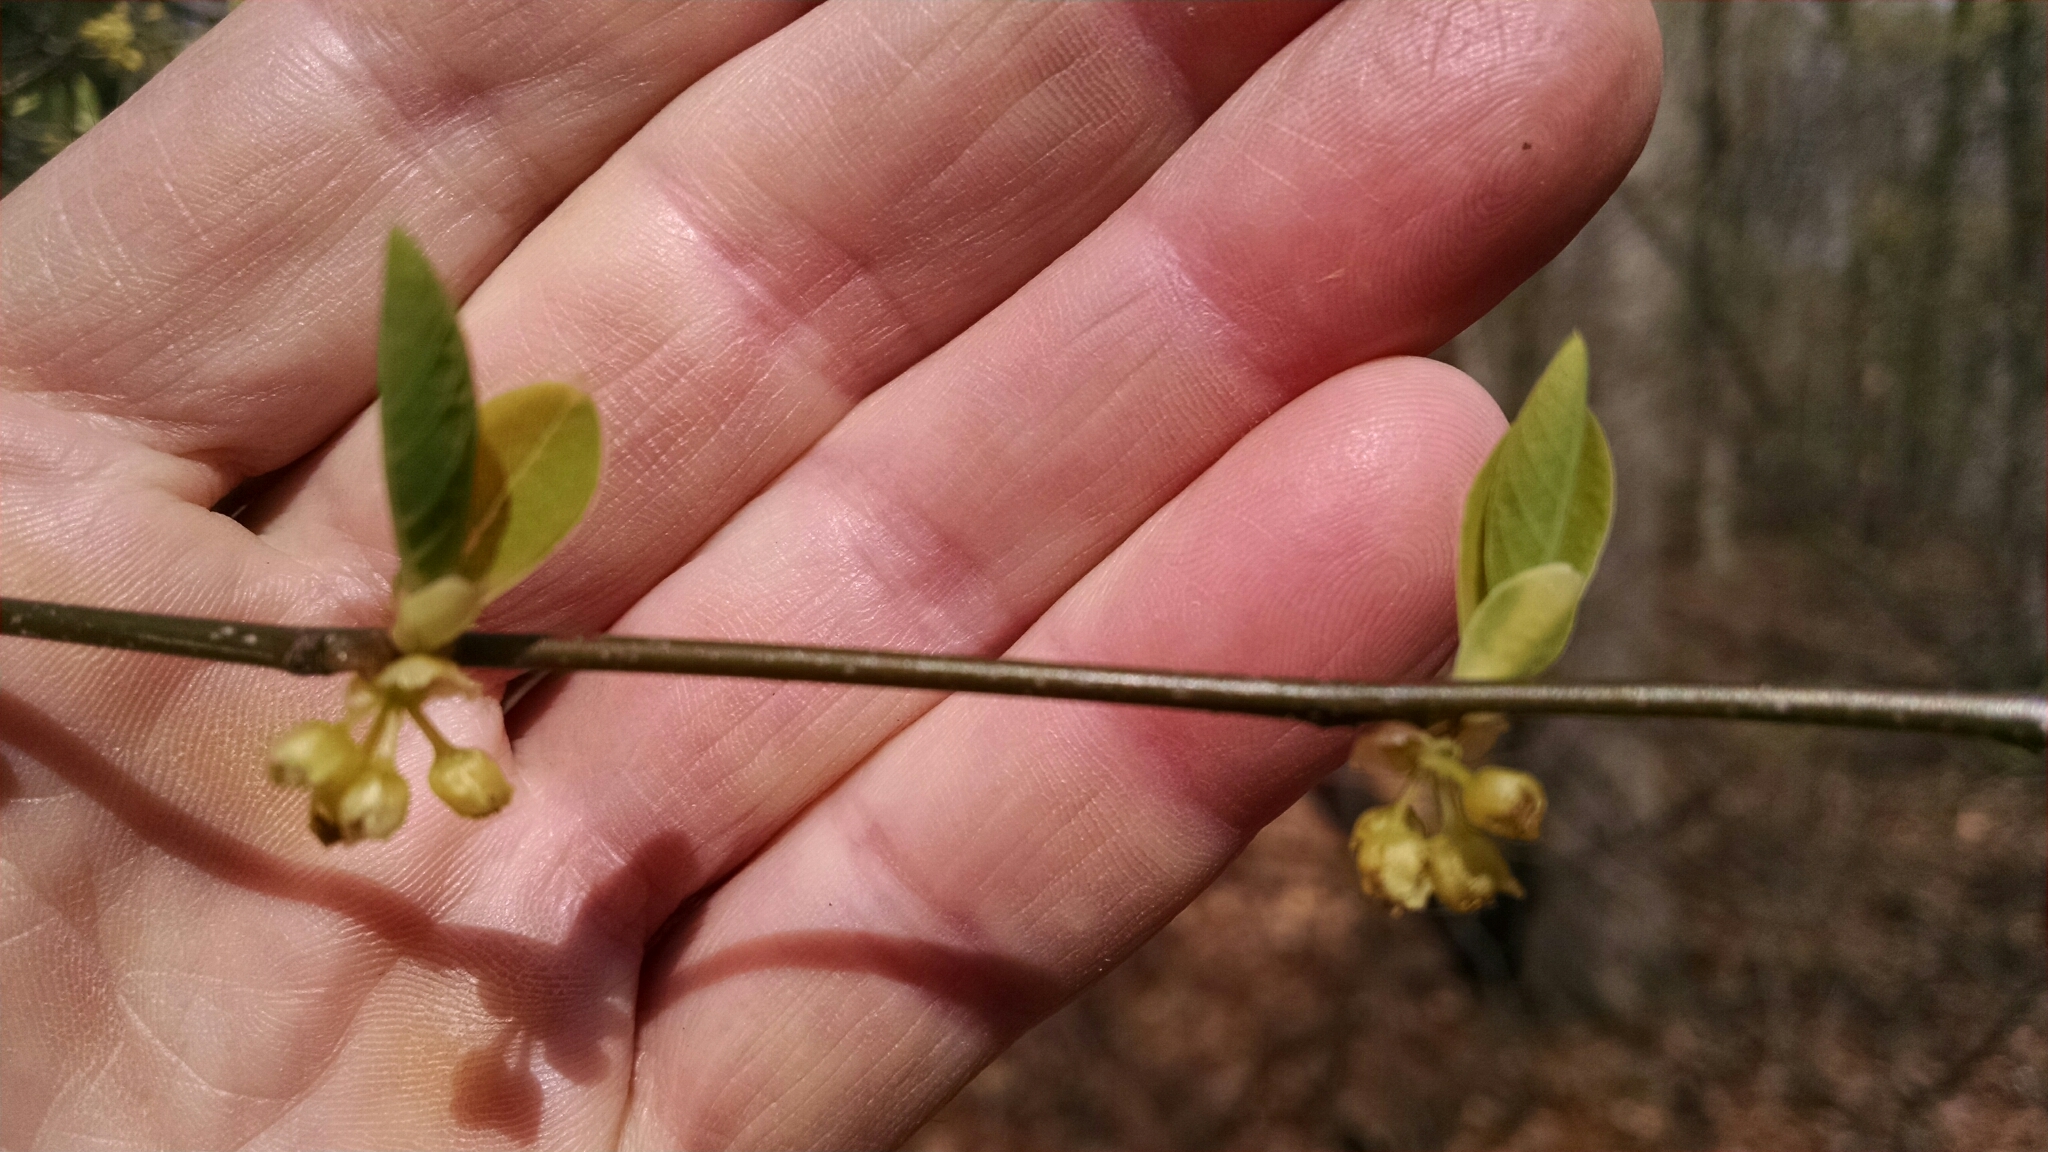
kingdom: Plantae
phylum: Tracheophyta
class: Magnoliopsida
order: Laurales
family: Lauraceae
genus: Lindera
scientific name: Lindera benzoin
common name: Spicebush
